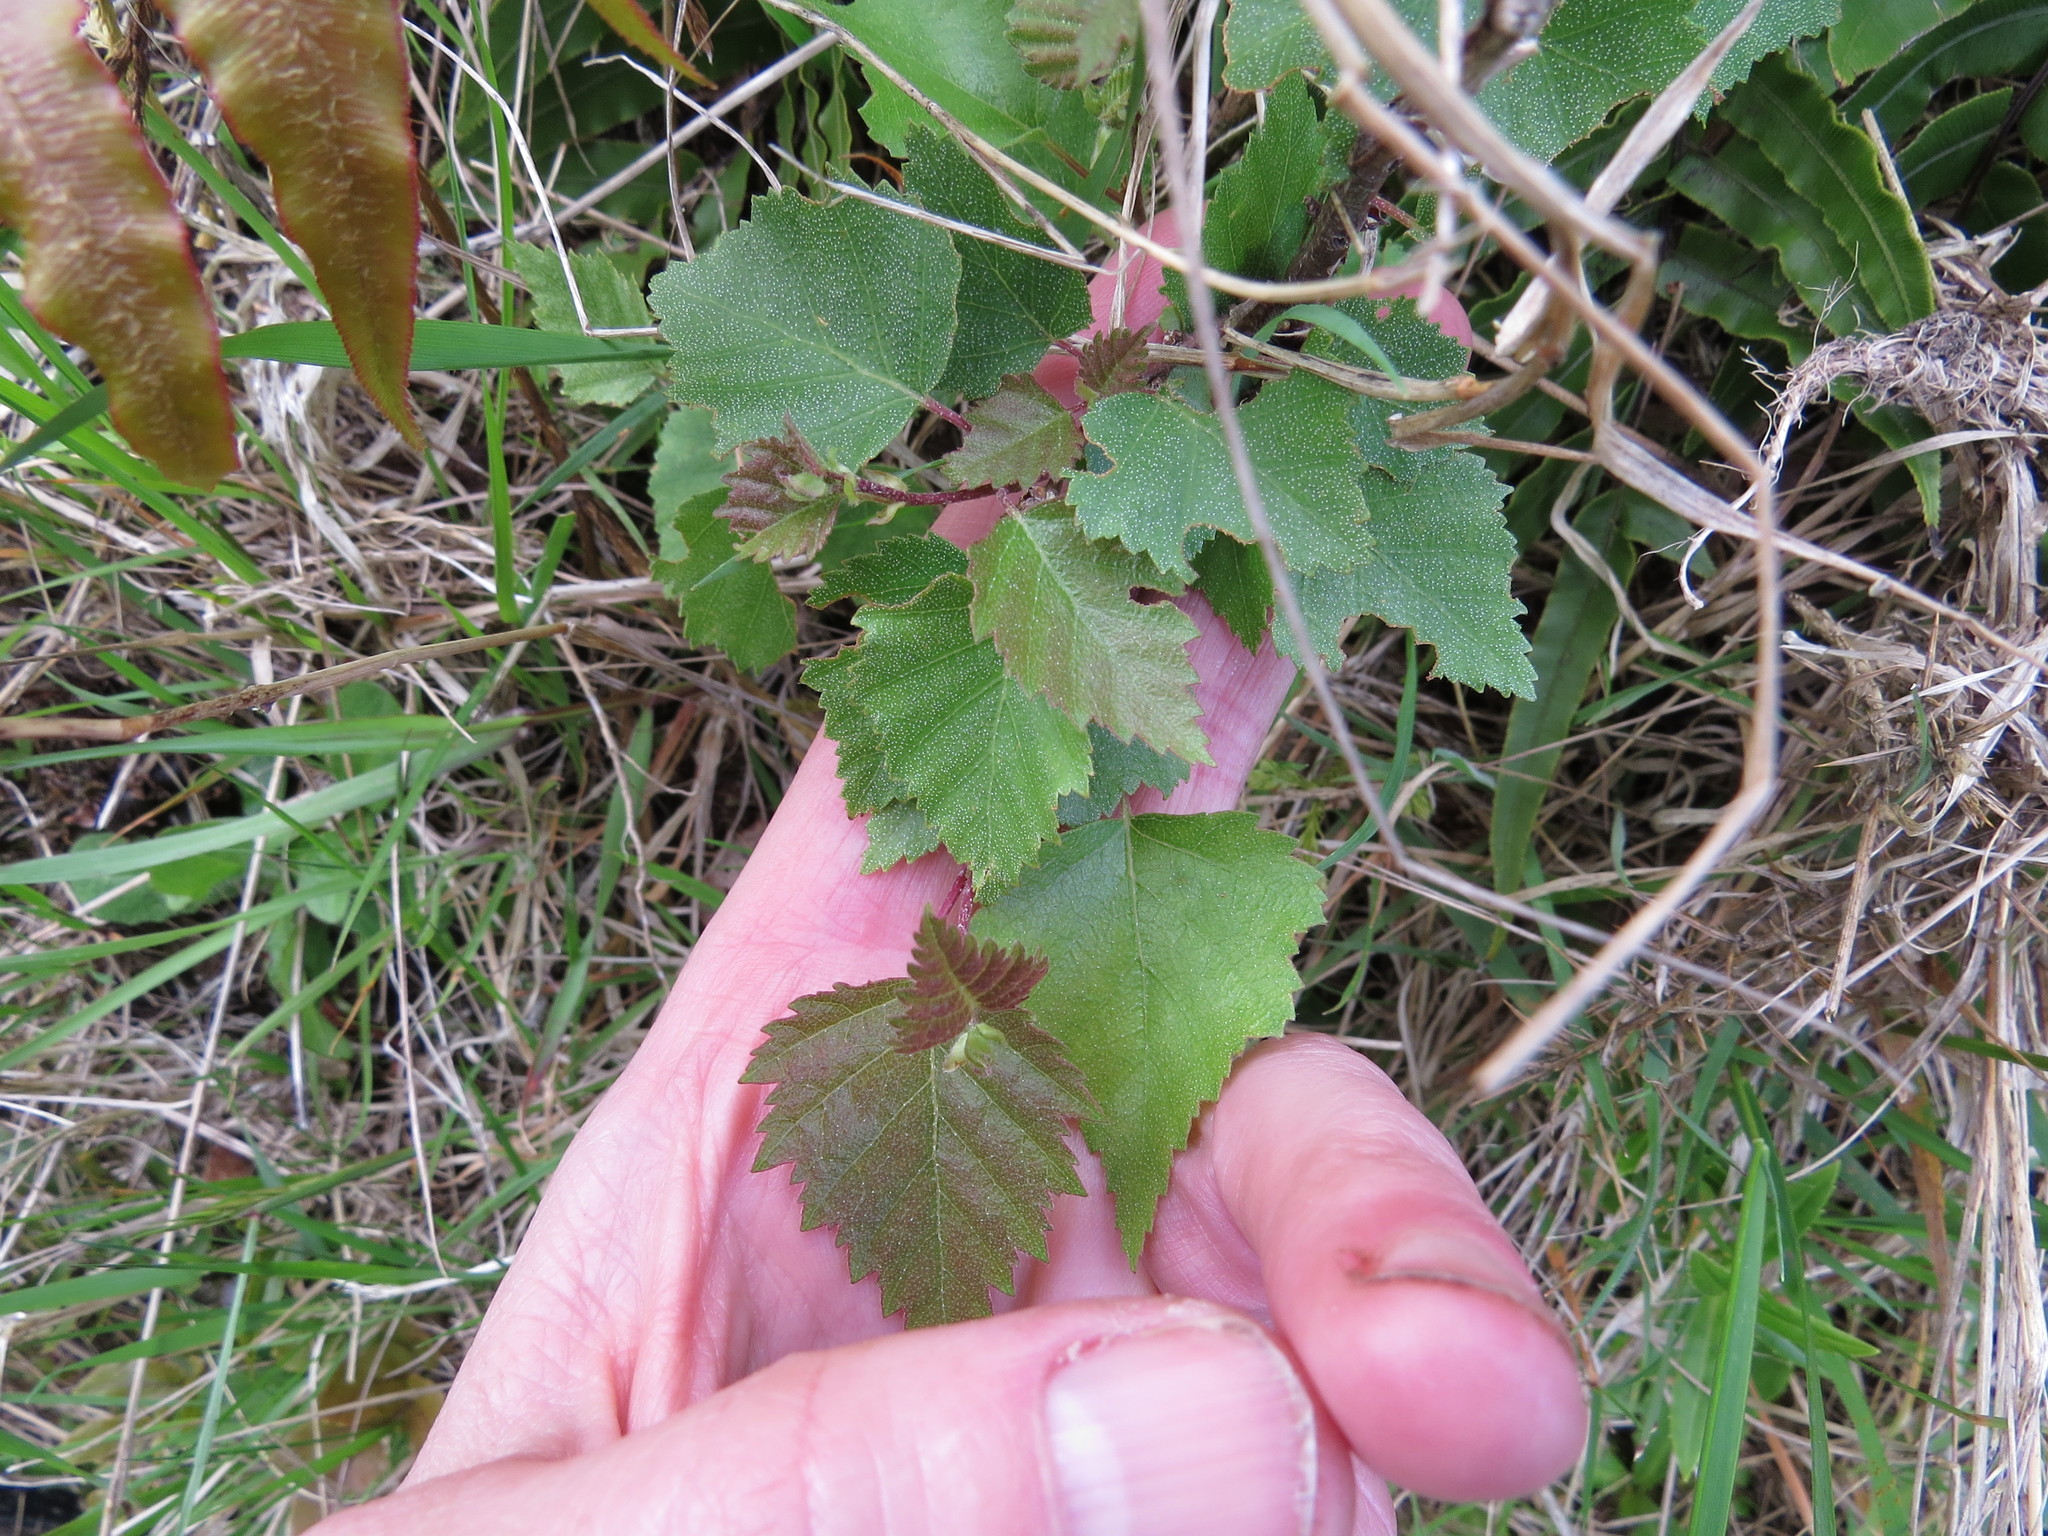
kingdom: Plantae
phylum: Tracheophyta
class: Magnoliopsida
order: Fagales
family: Betulaceae
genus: Betula
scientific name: Betula pendula
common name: Silver birch
